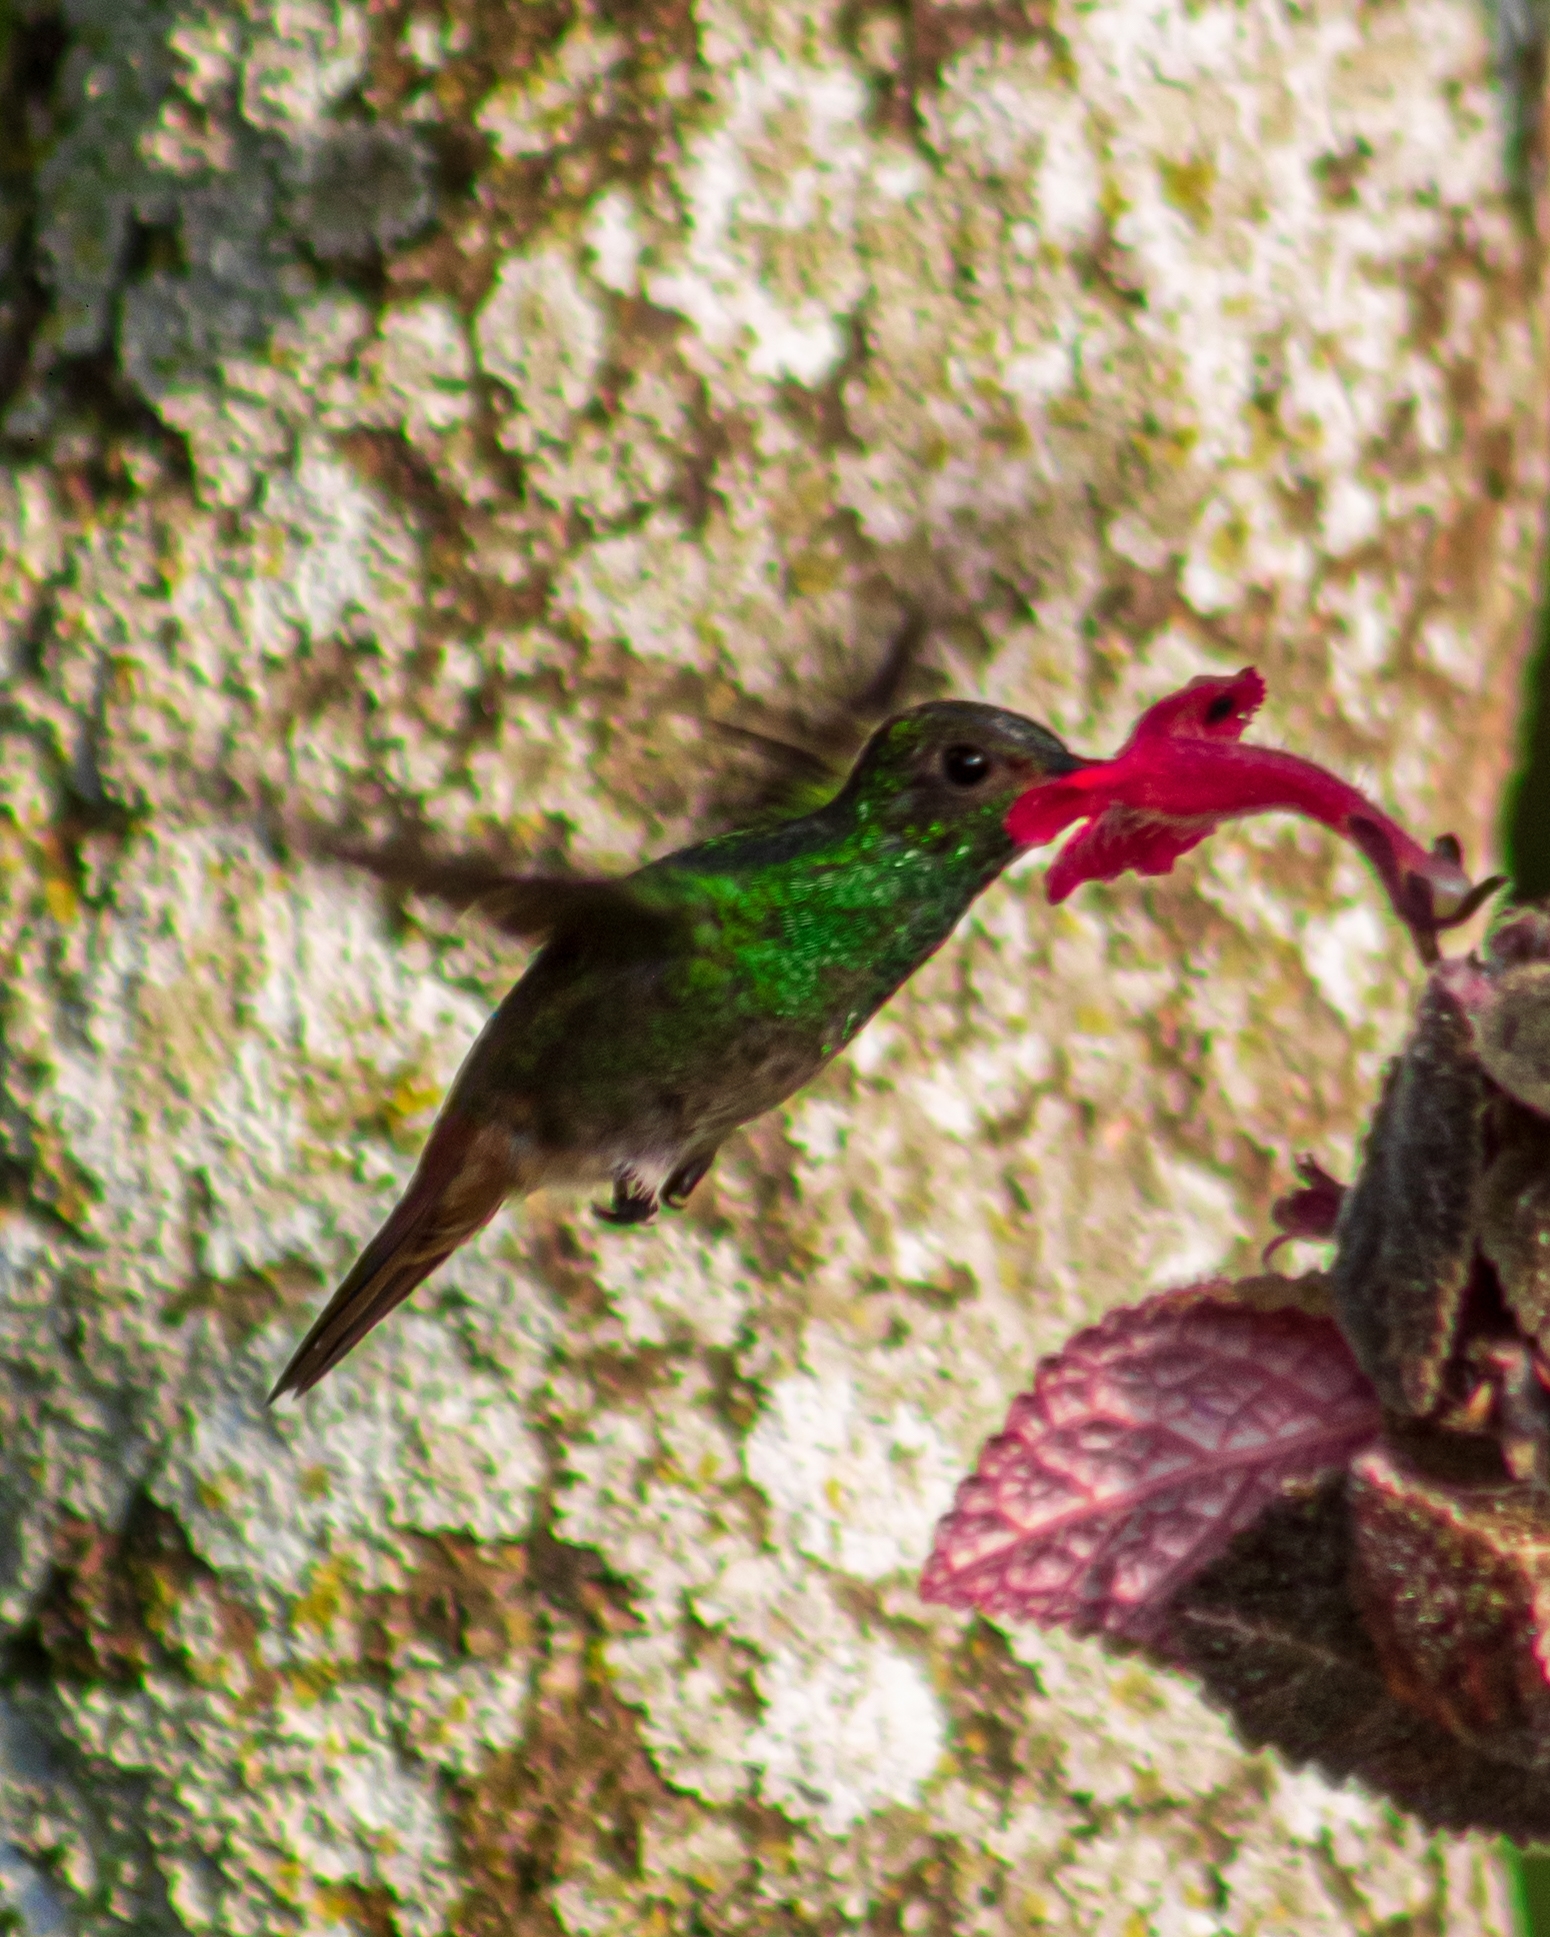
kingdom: Animalia
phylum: Chordata
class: Aves
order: Apodiformes
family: Trochilidae
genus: Amazilia
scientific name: Amazilia tzacatl
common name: Rufous-tailed hummingbird
